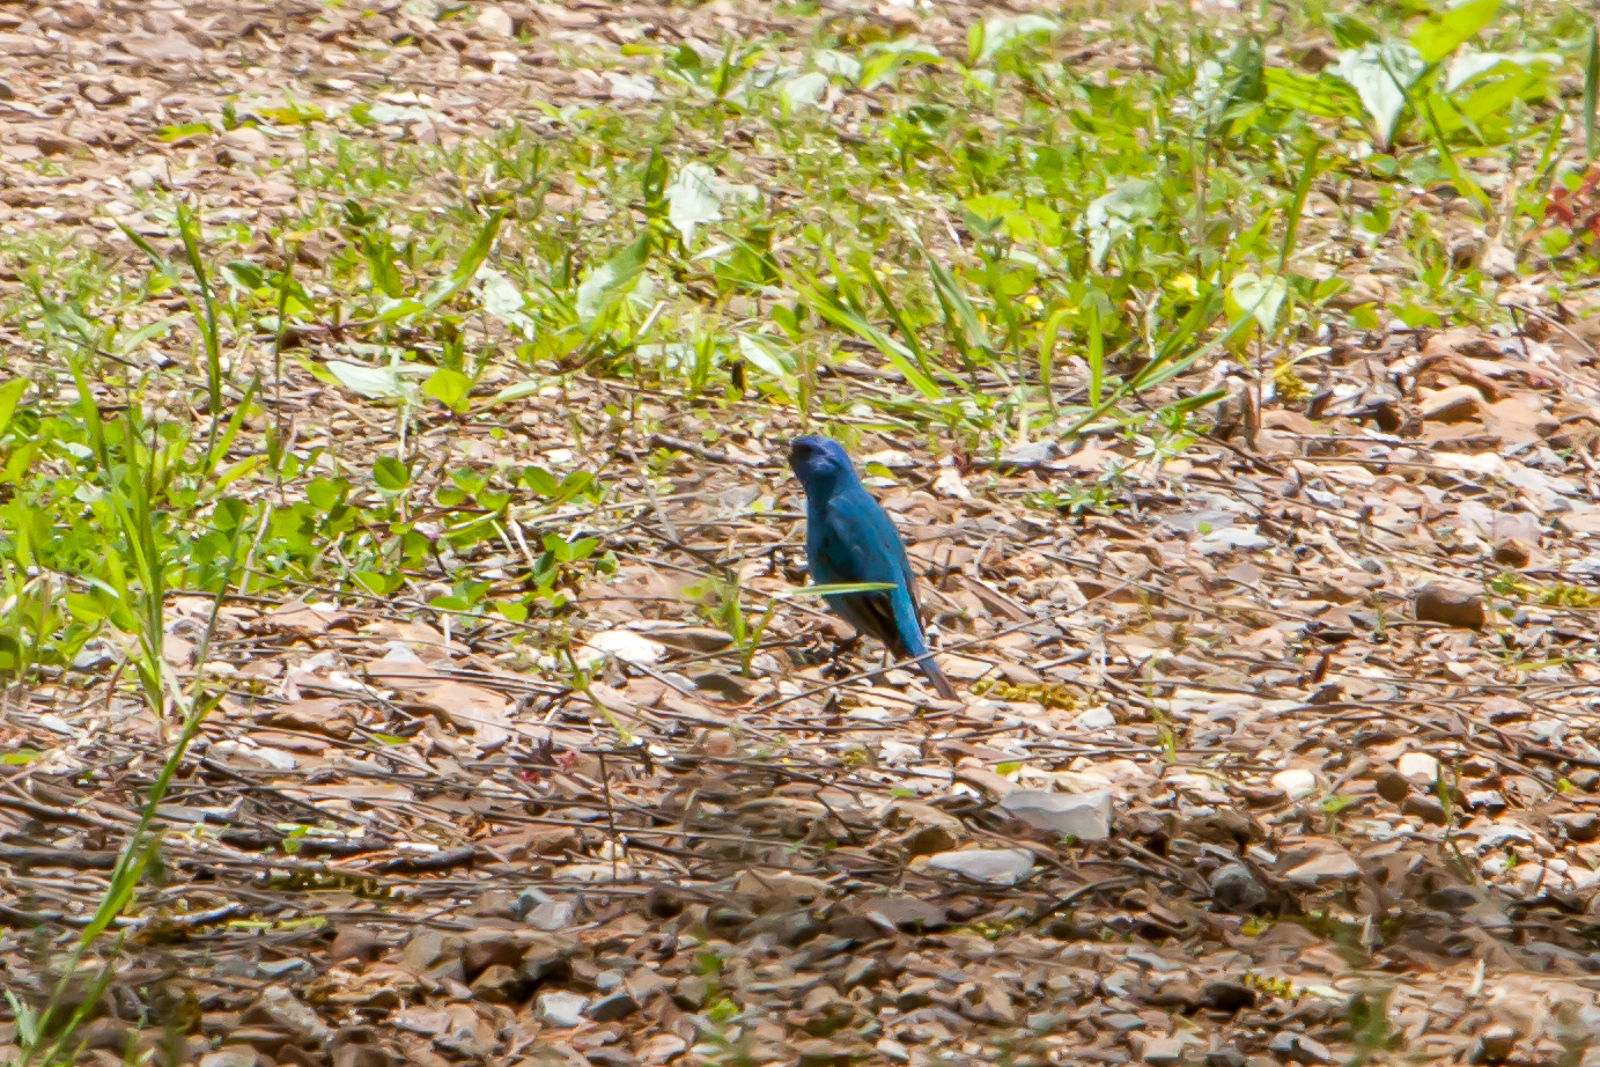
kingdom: Animalia
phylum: Chordata
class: Aves
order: Passeriformes
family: Cardinalidae
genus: Passerina
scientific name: Passerina cyanea
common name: Indigo bunting
